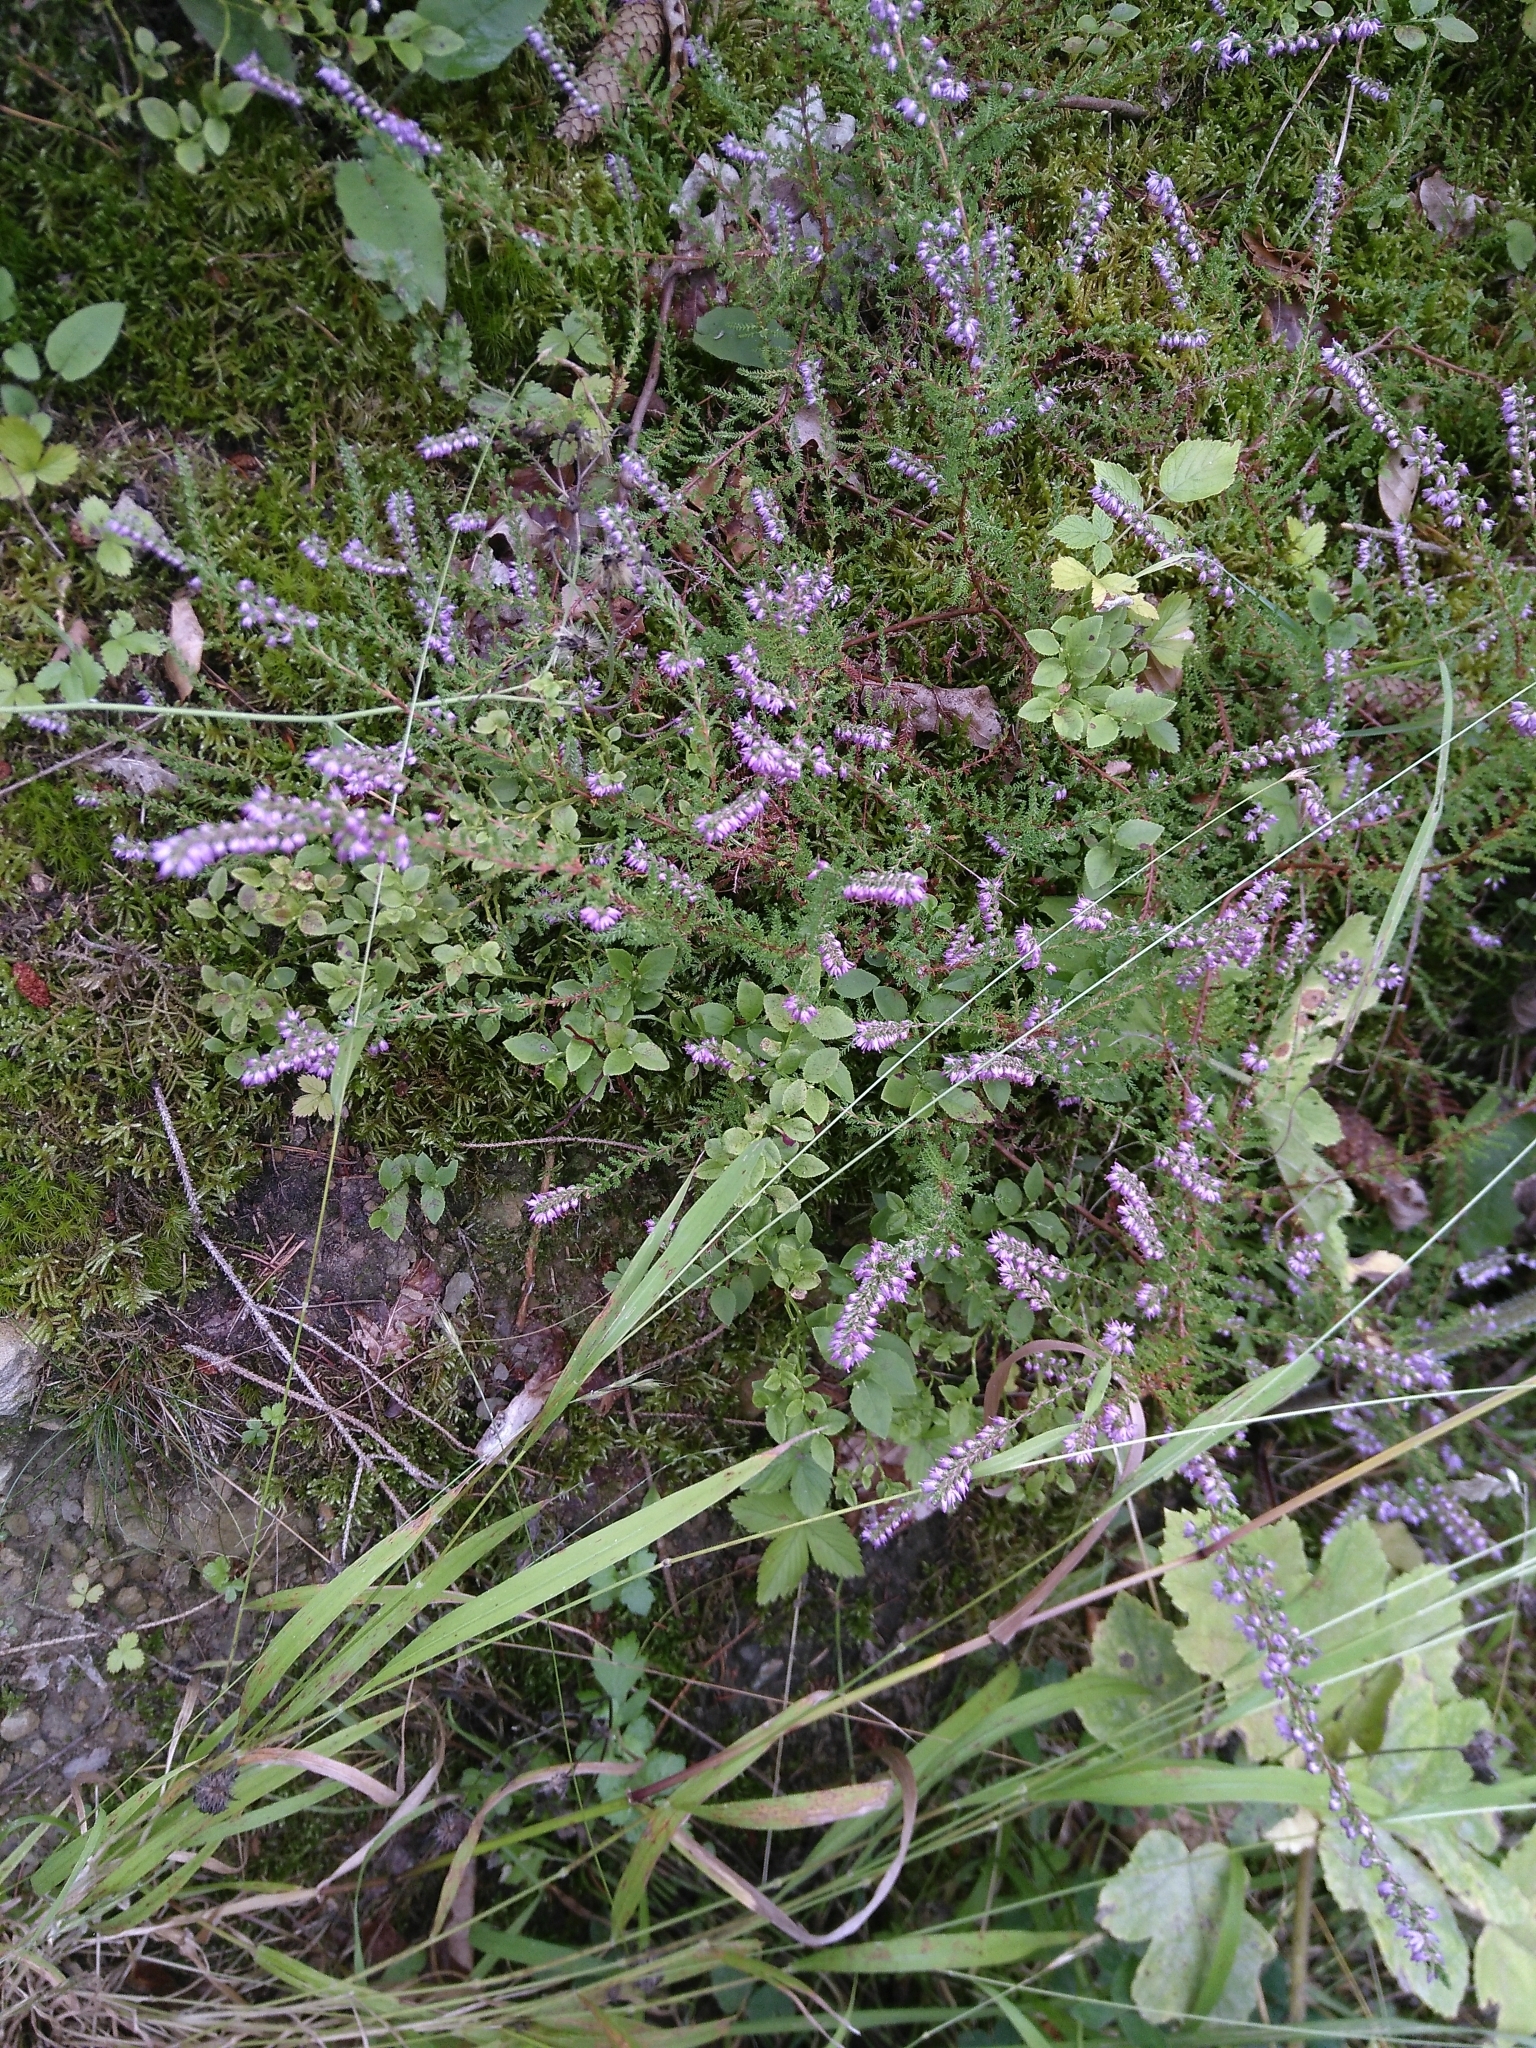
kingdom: Plantae
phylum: Tracheophyta
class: Magnoliopsida
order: Ericales
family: Ericaceae
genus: Calluna
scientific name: Calluna vulgaris
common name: Heather
